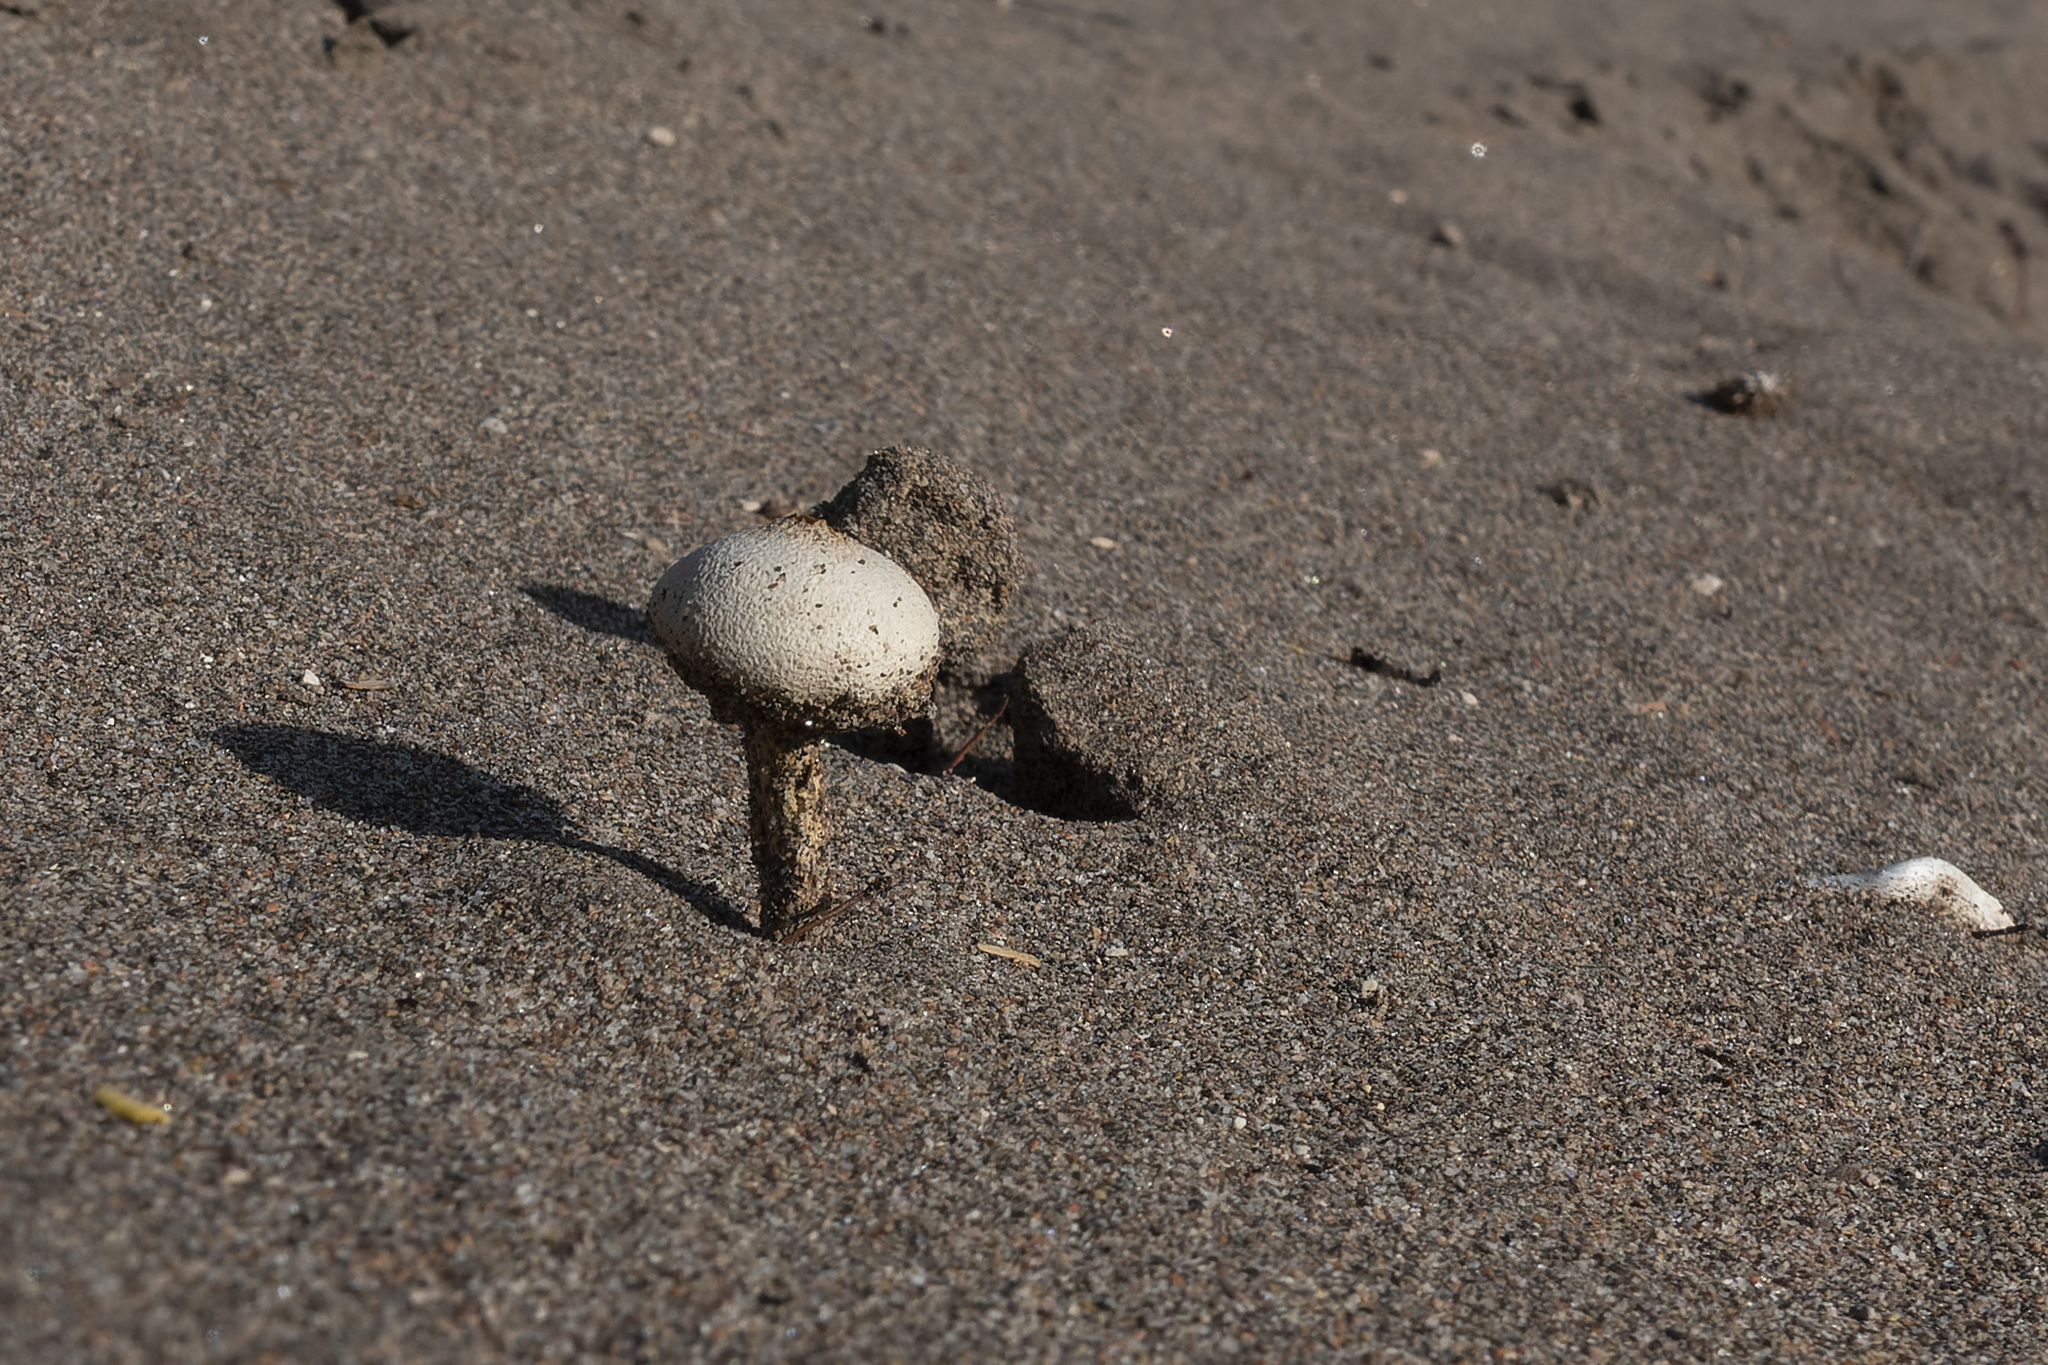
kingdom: Fungi
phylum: Basidiomycota
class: Agaricomycetes
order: Agaricales
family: Agaricaceae
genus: Tulostoma
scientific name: Tulostoma brumale
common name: Winter stalk puffball
